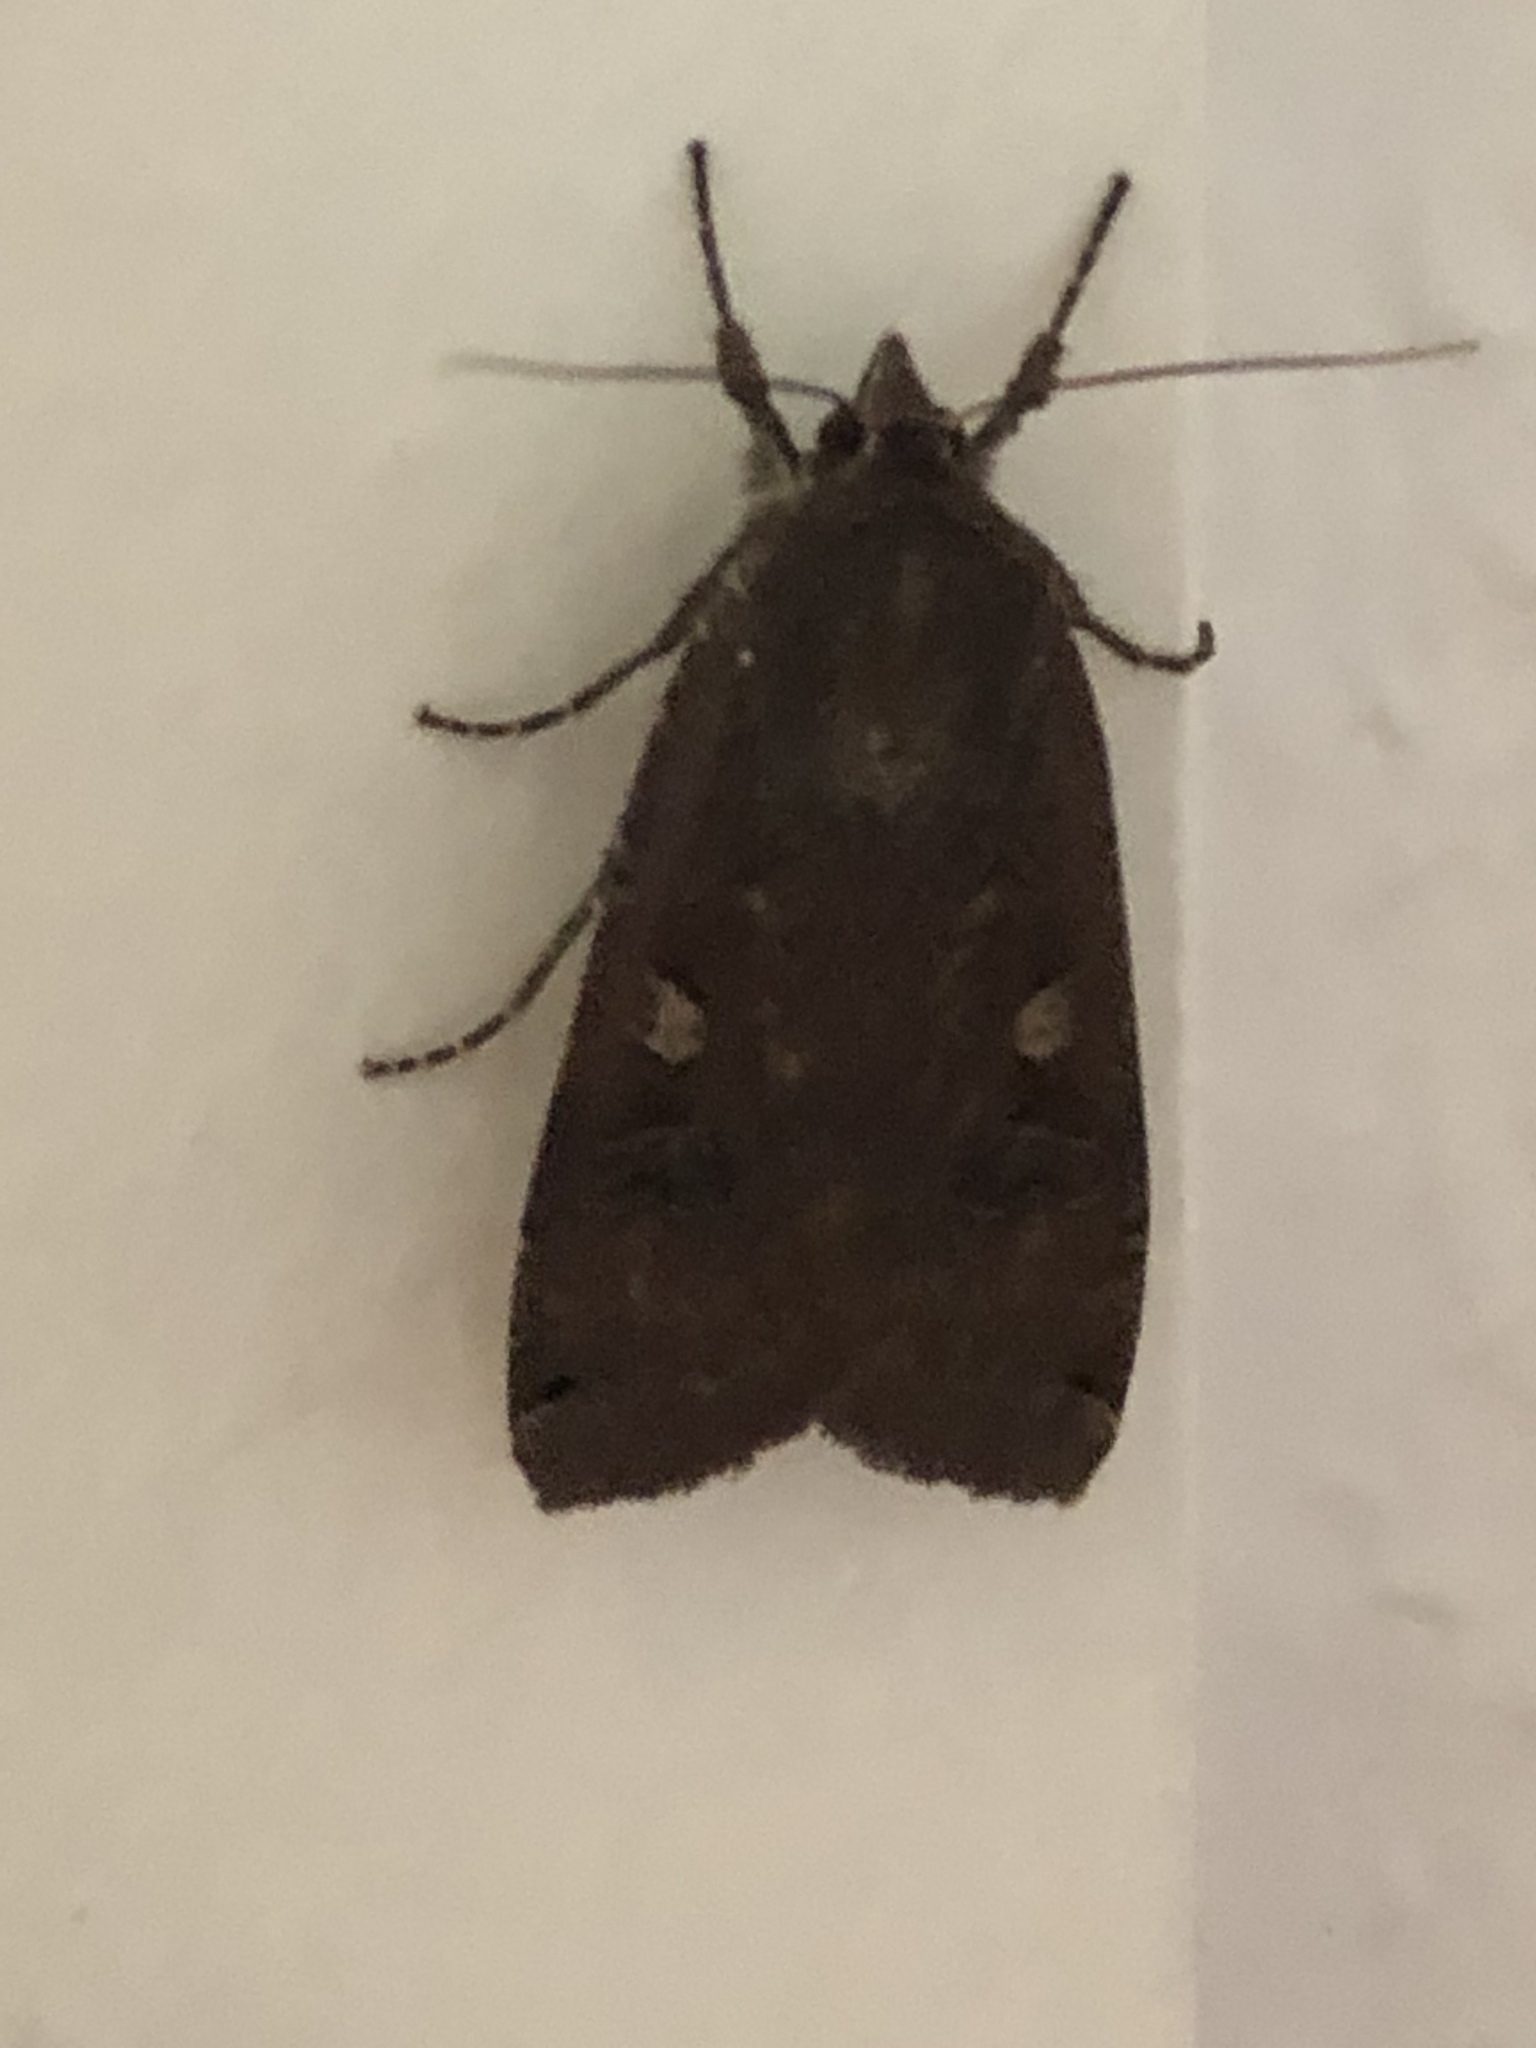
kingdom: Animalia
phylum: Arthropoda
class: Insecta
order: Lepidoptera
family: Noctuidae
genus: Noctua
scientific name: Noctua pronuba
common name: Large yellow underwing
